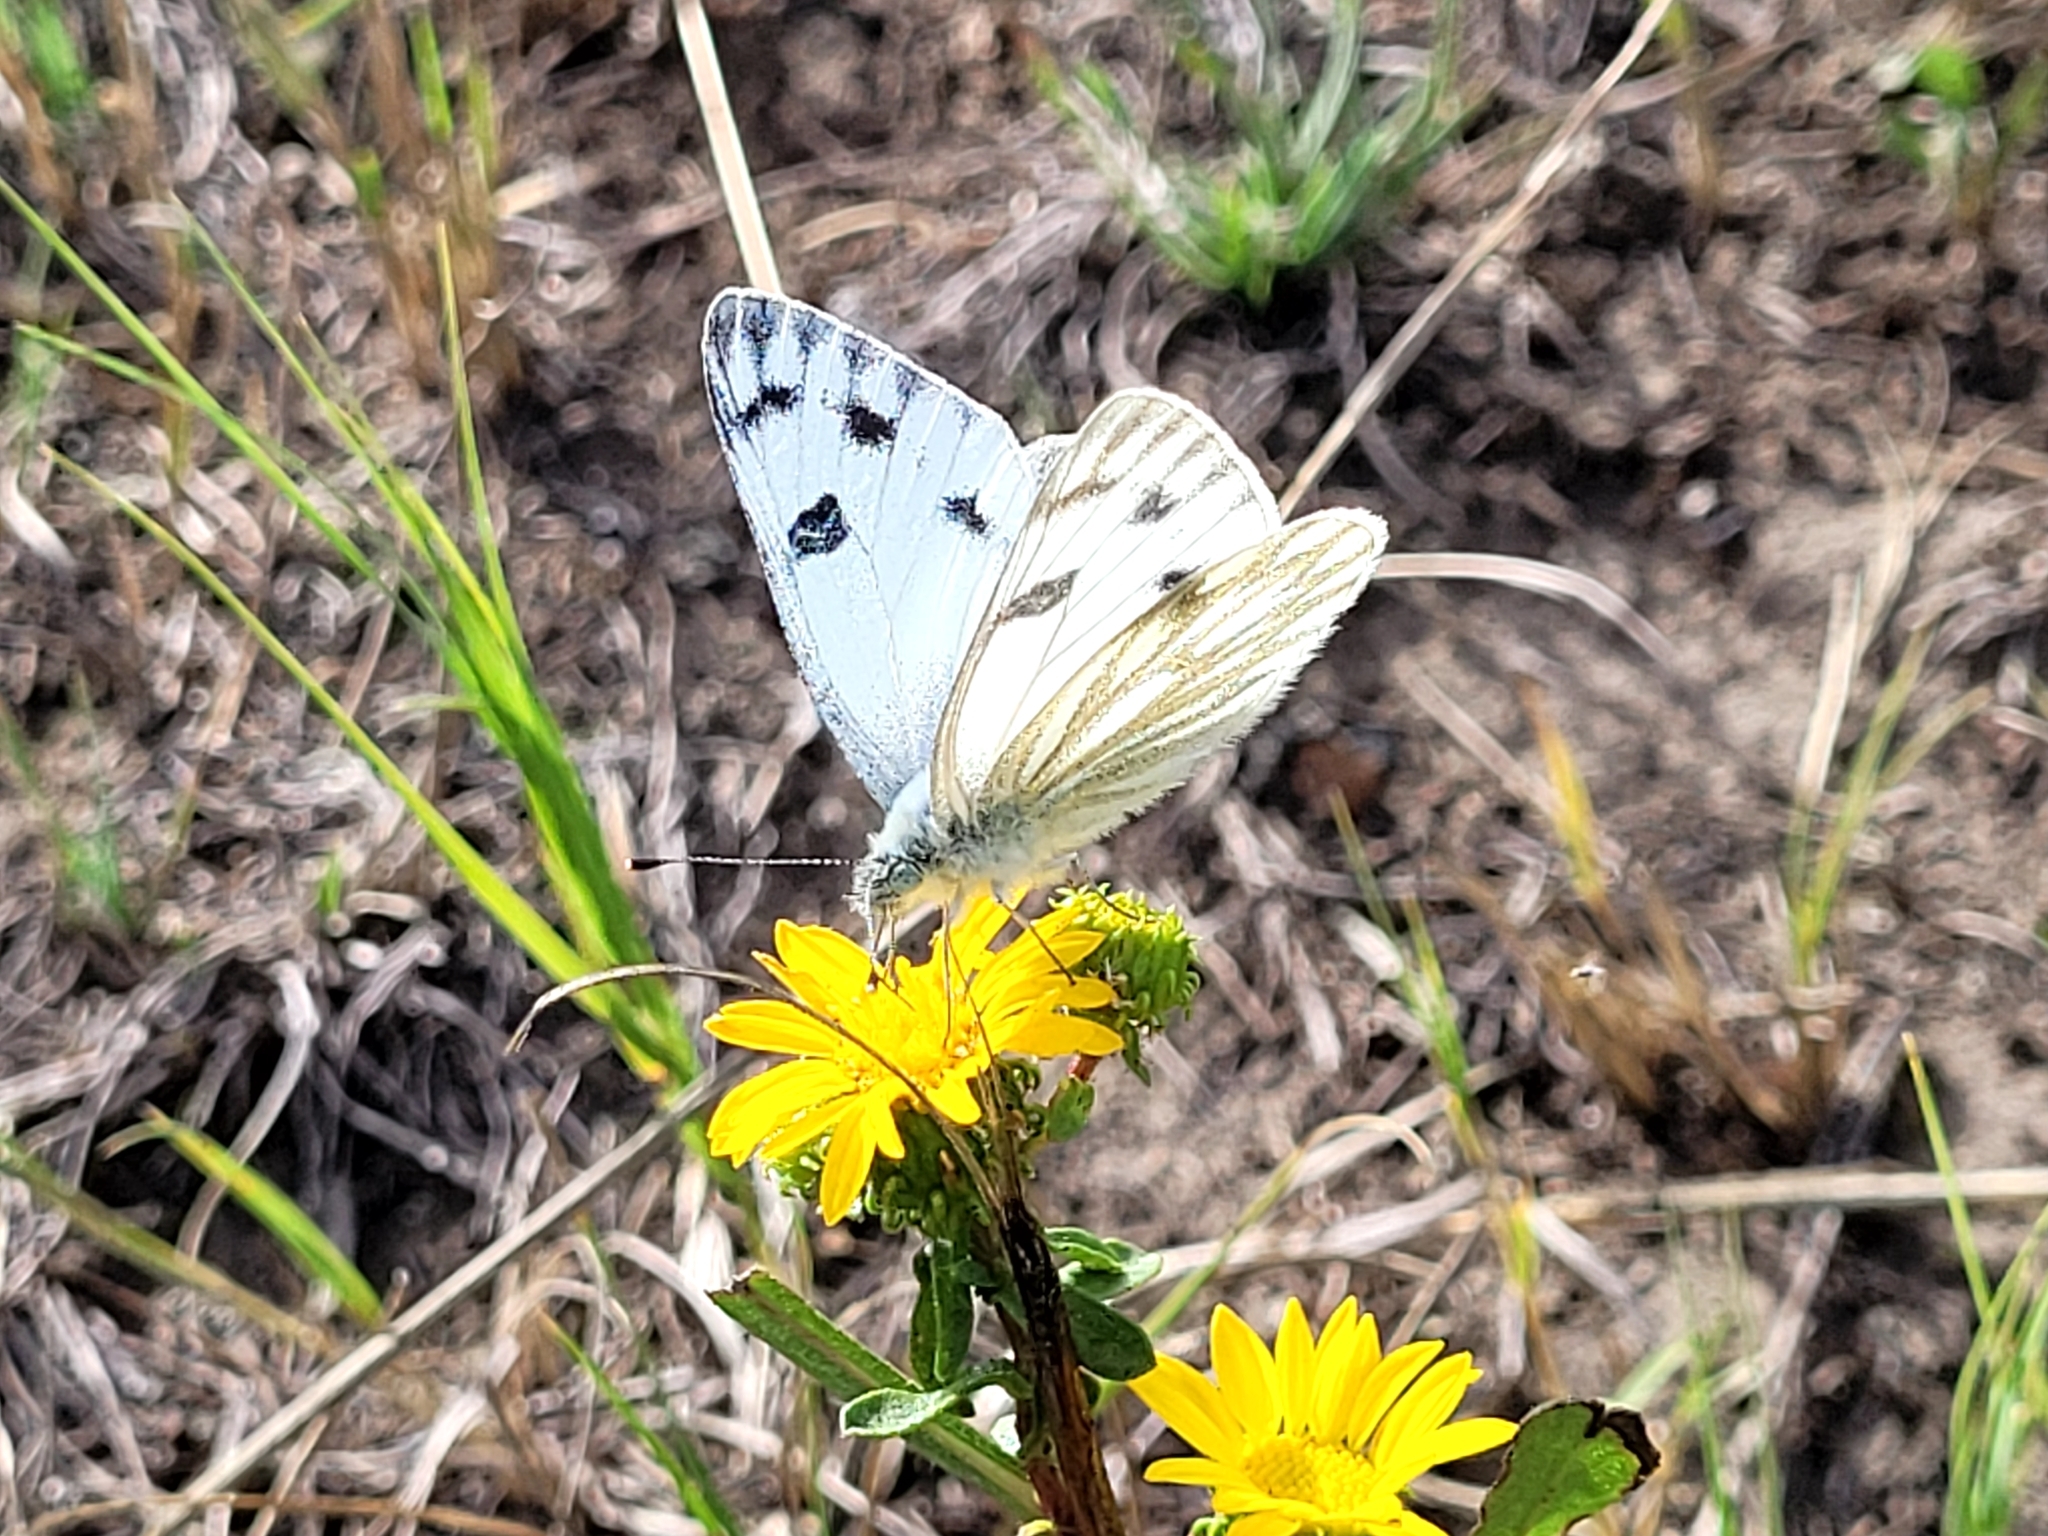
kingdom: Animalia
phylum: Arthropoda
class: Insecta
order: Lepidoptera
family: Pieridae
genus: Pontia
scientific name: Pontia occidentalis
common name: Western white
